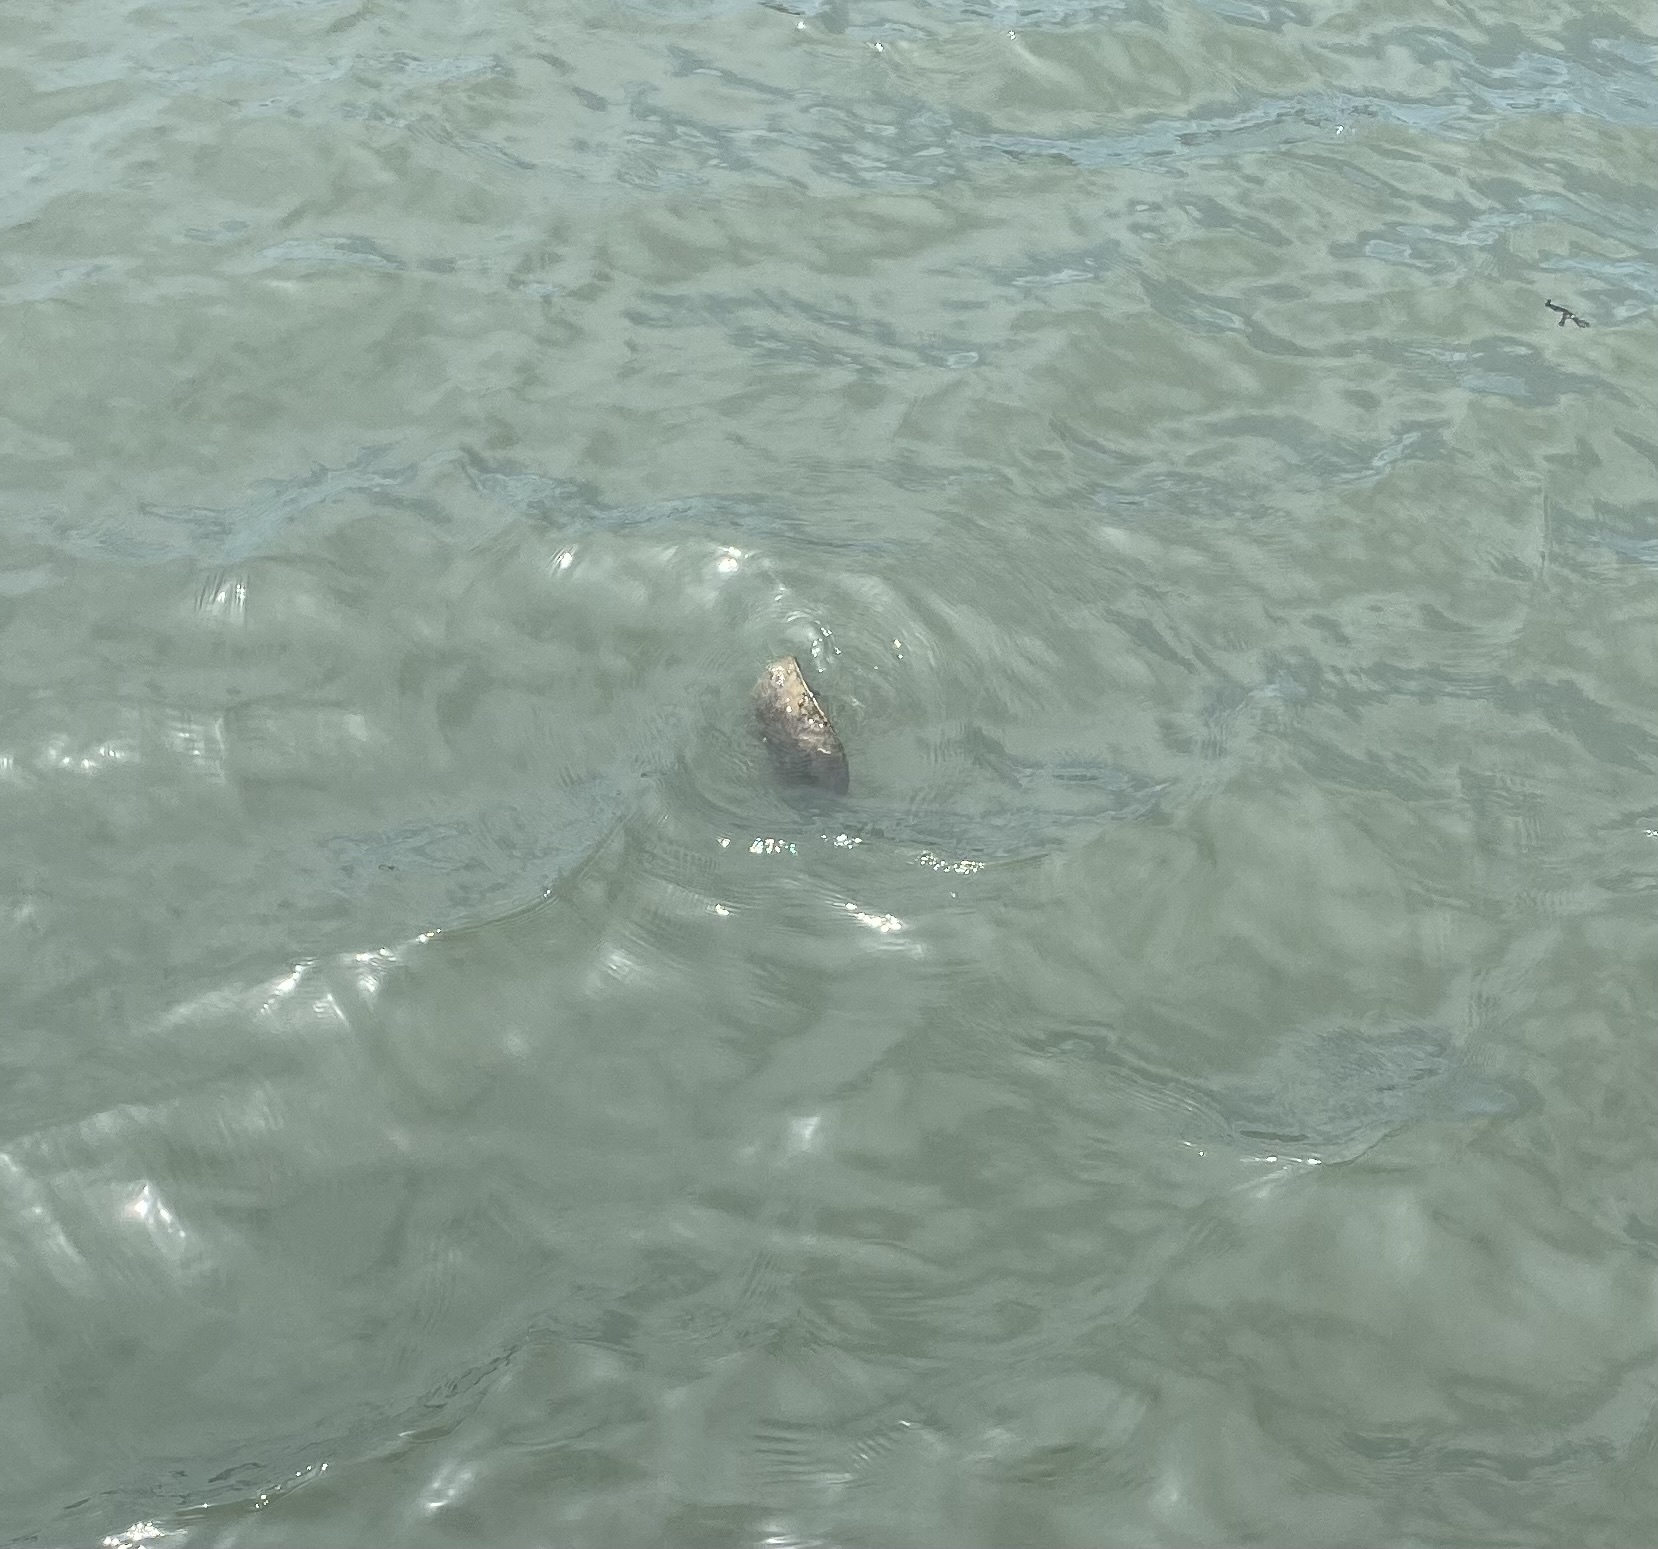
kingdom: Animalia
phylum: Arthropoda
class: Merostomata
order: Xiphosurida
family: Limulidae
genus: Limulus
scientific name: Limulus polyphemus
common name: Horseshoe crab
